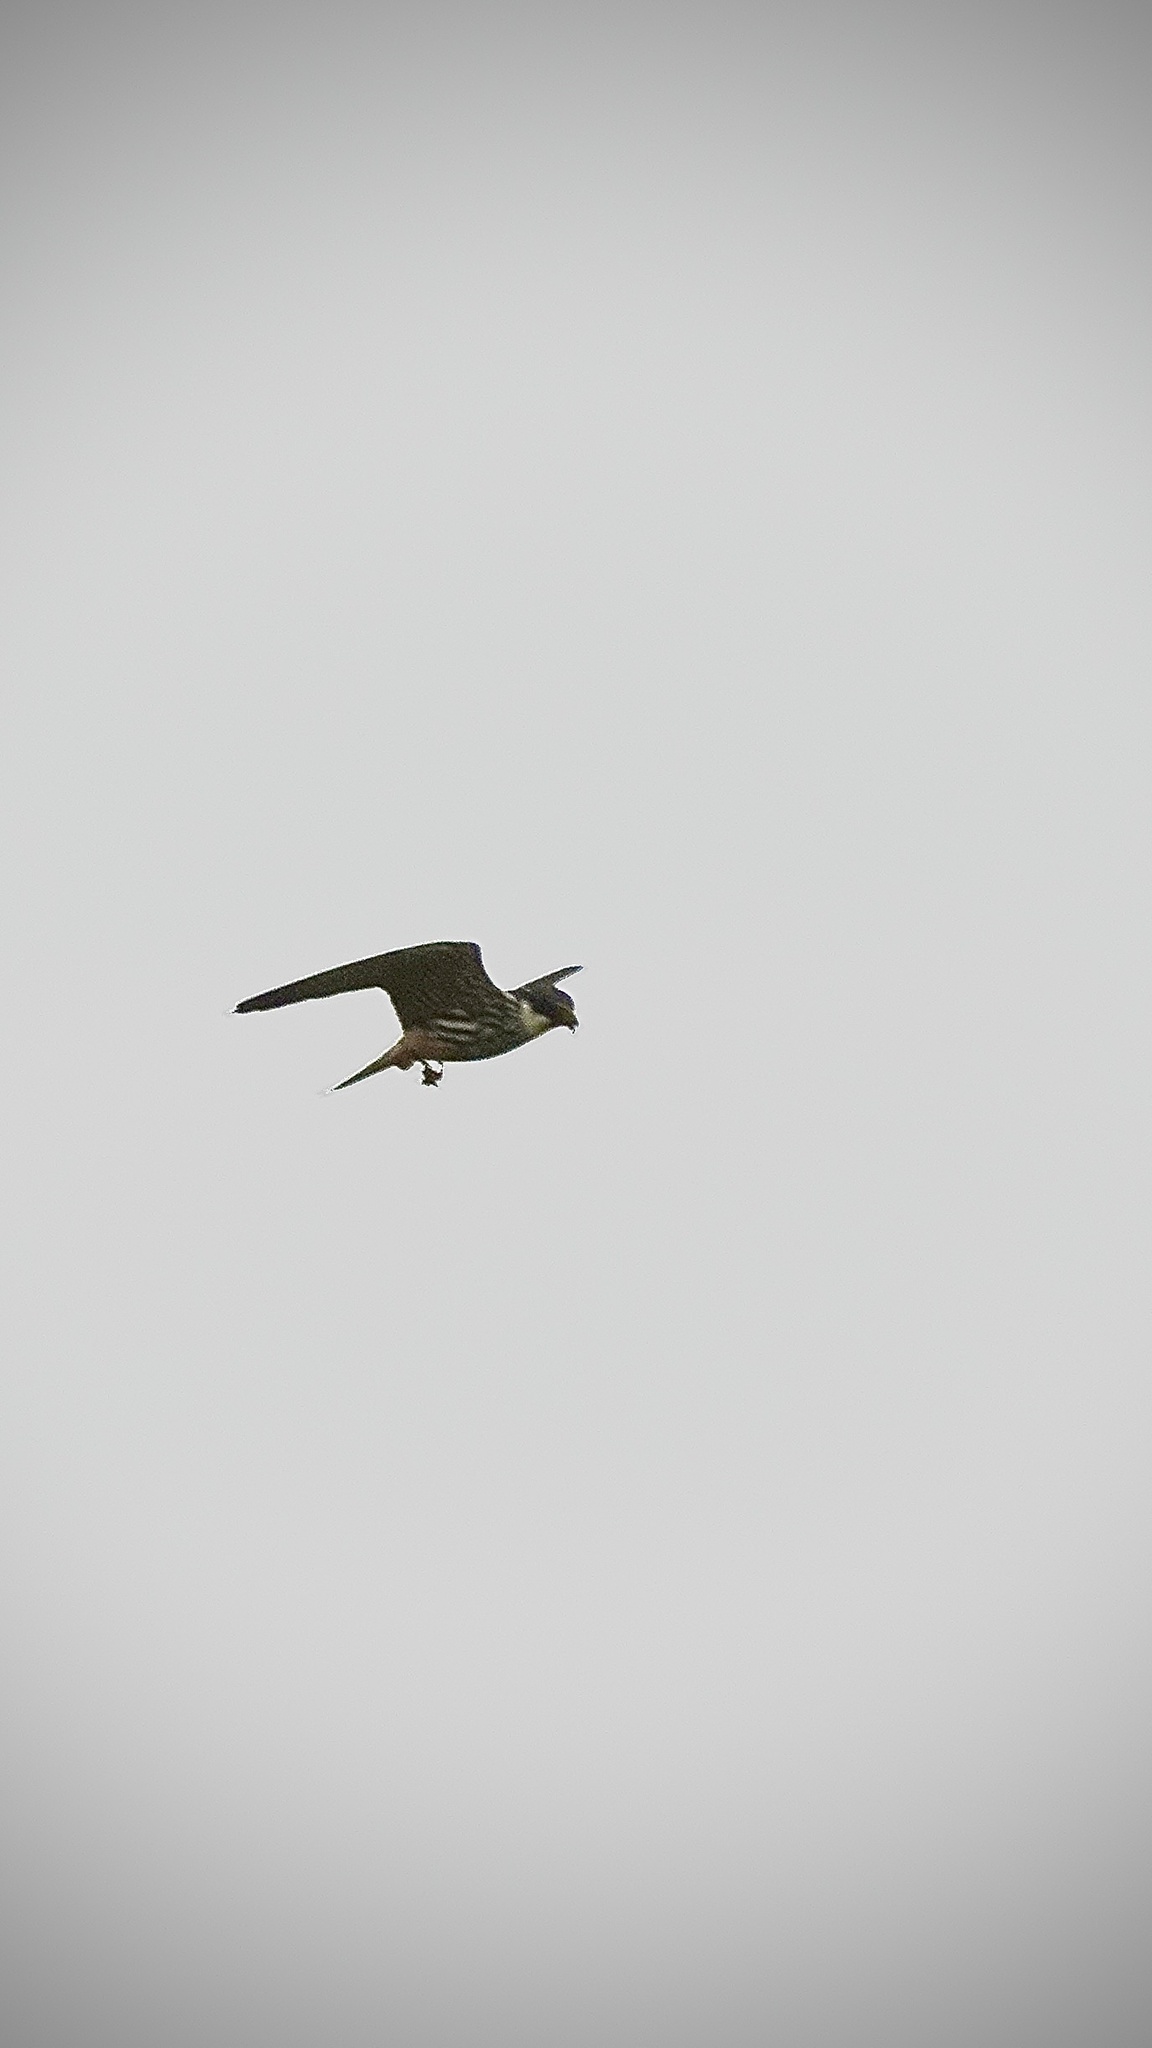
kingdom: Animalia
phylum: Chordata
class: Aves
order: Falconiformes
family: Falconidae
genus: Falco
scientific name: Falco subbuteo
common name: Eurasian hobby
